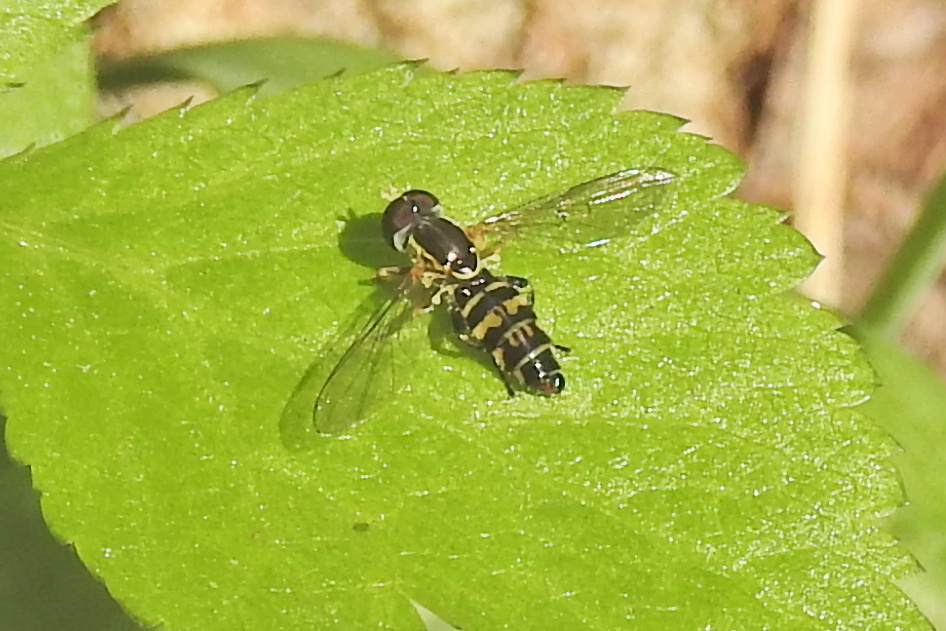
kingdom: Animalia
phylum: Arthropoda
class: Insecta
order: Diptera
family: Syrphidae
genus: Toxomerus
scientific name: Toxomerus geminatus
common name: Eastern calligrapher
